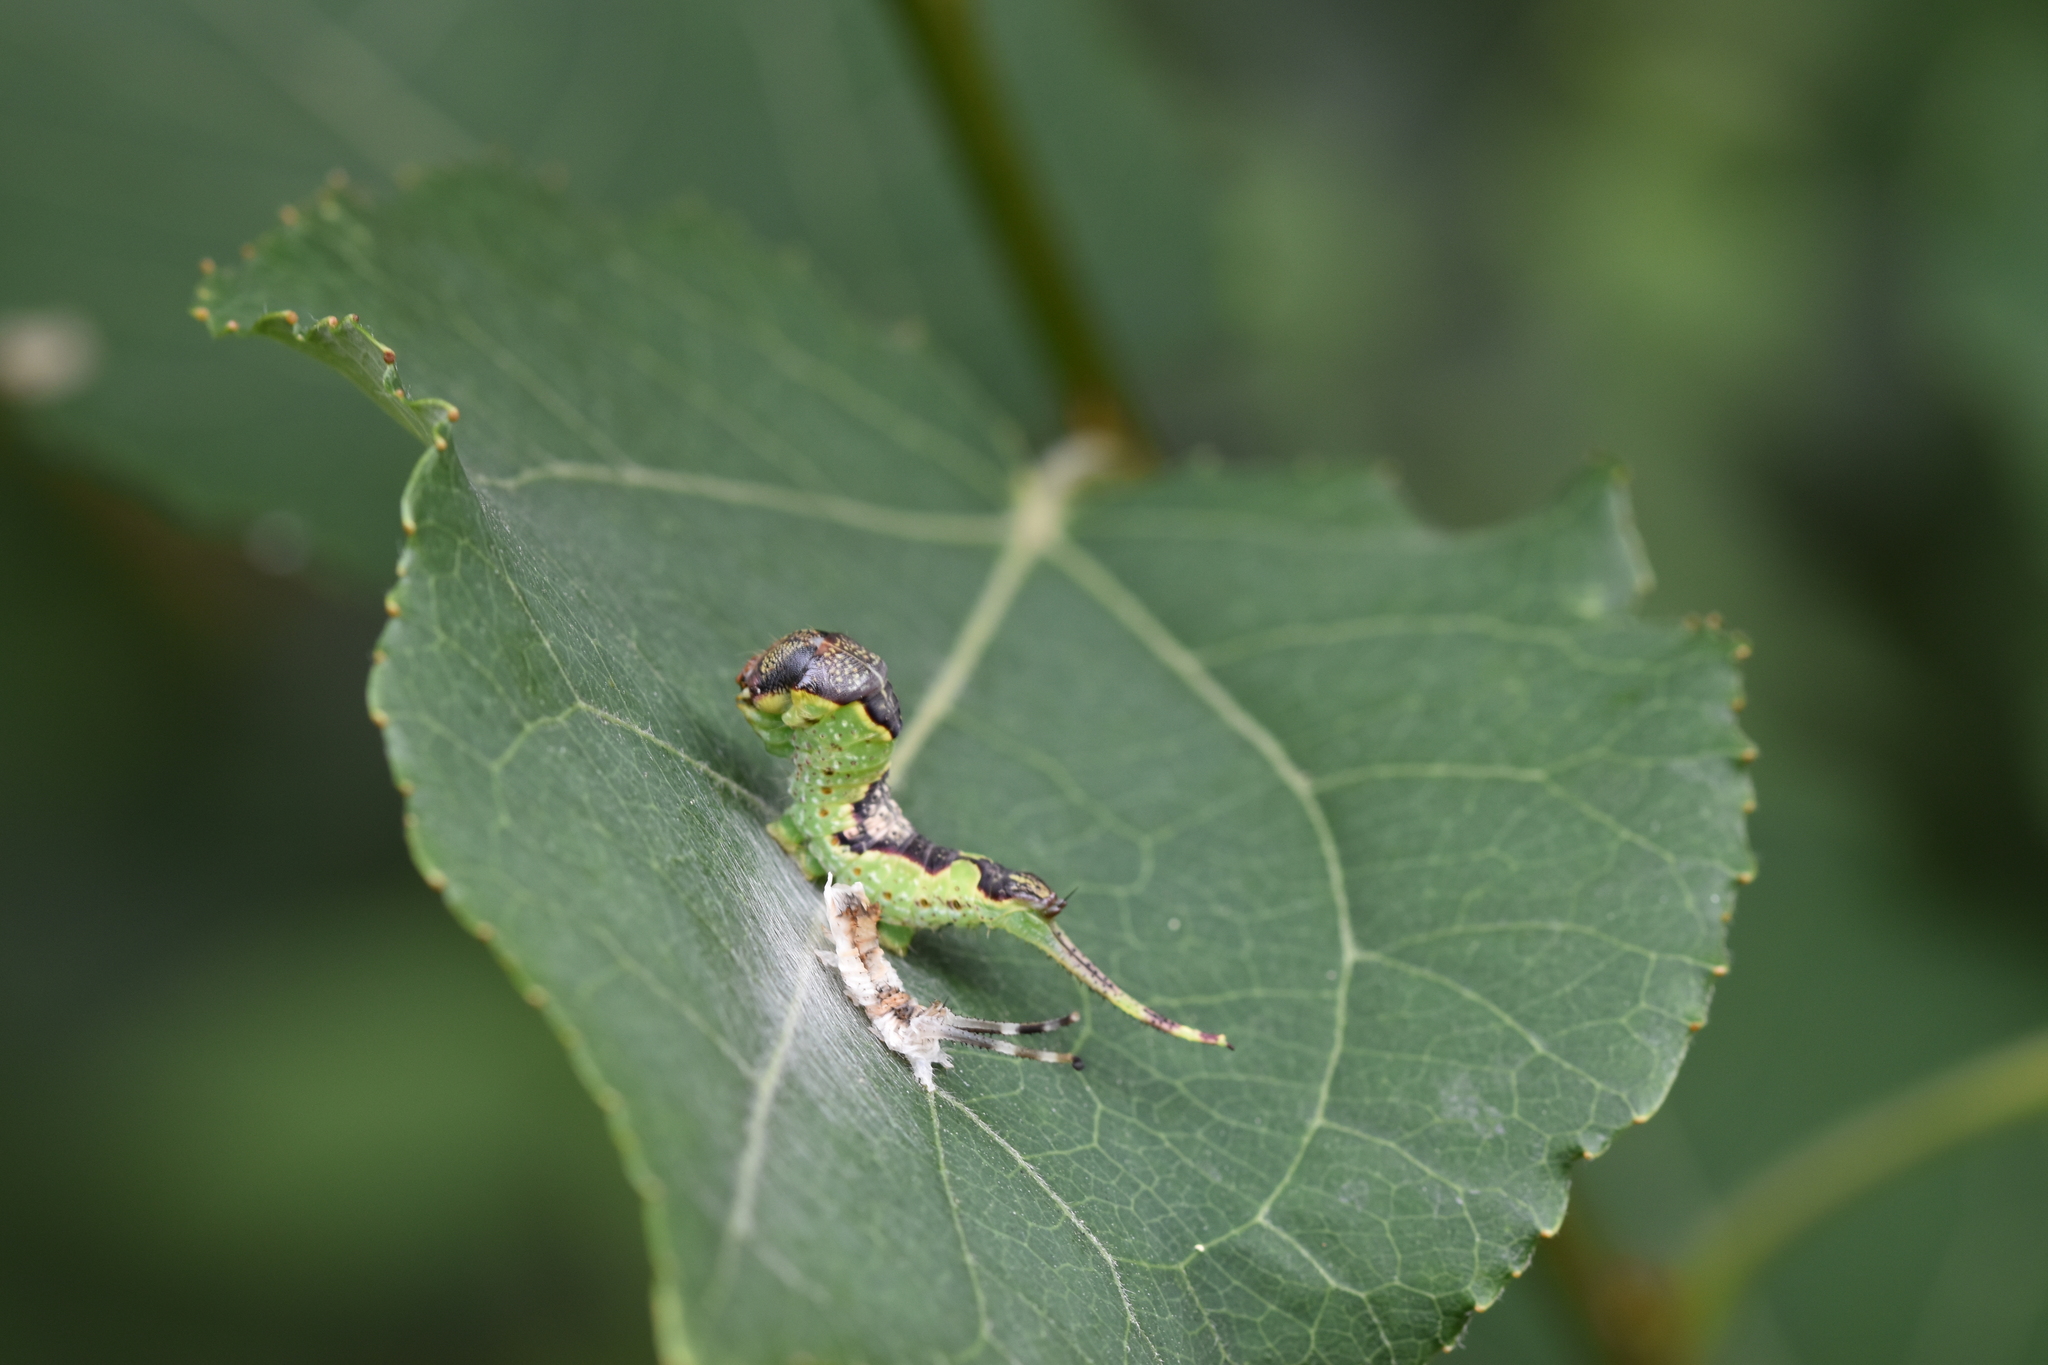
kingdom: Animalia
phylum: Arthropoda
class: Insecta
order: Lepidoptera
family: Notodontidae
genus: Furcula
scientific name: Furcula bifida
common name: Poplar kitten
